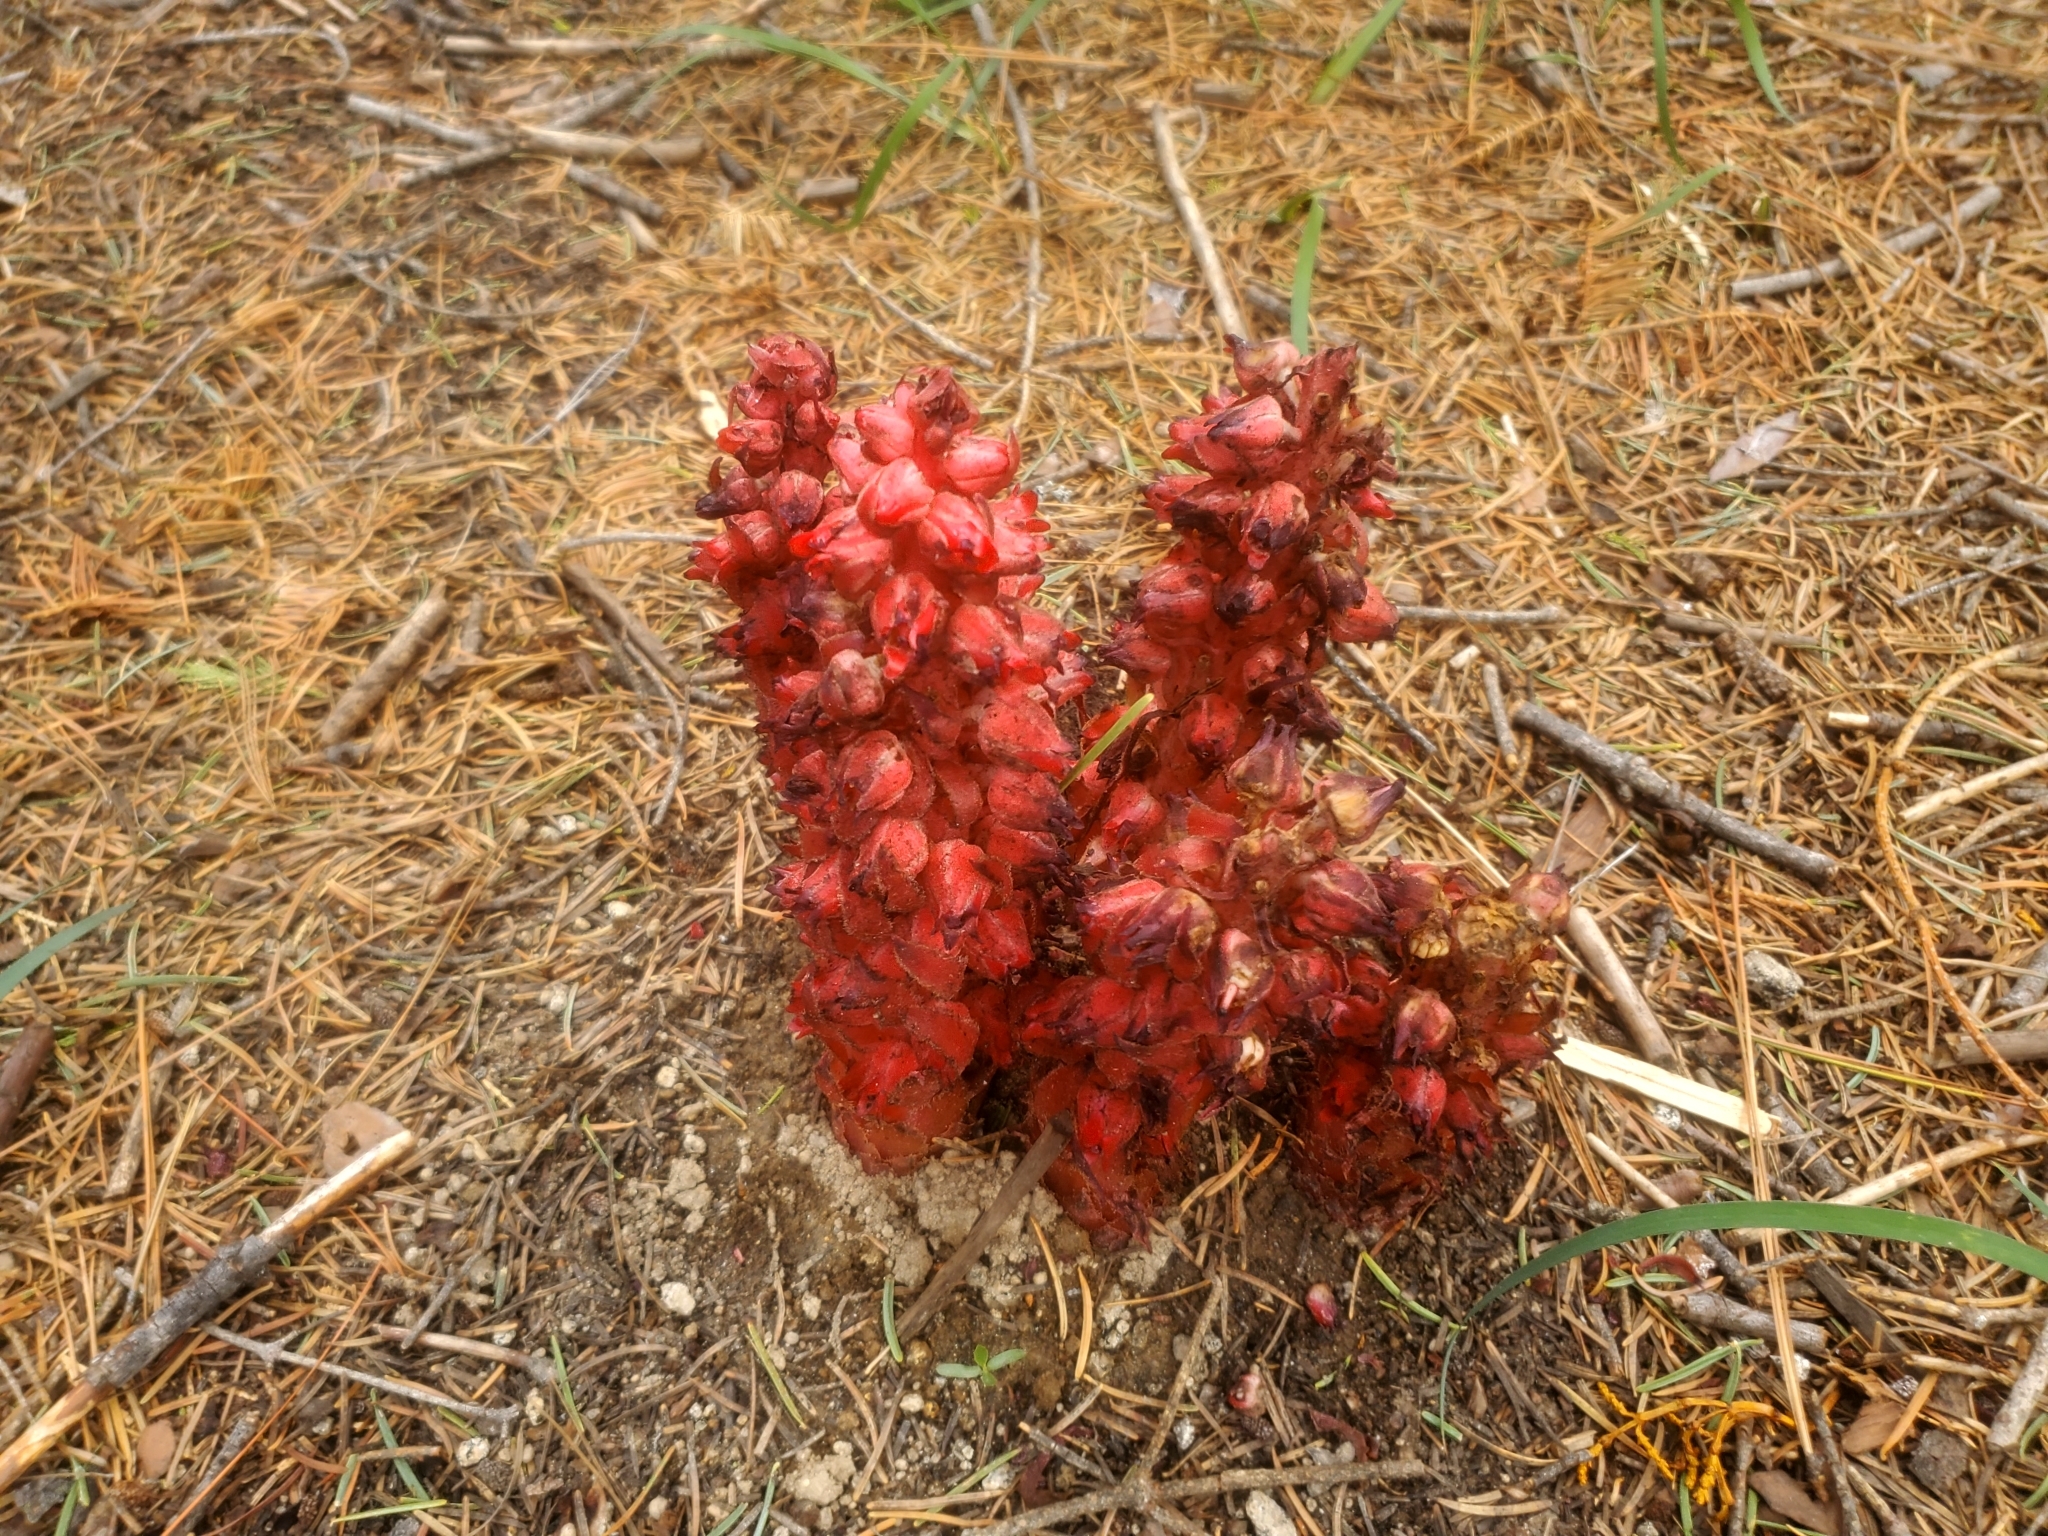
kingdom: Plantae
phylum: Tracheophyta
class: Magnoliopsida
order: Ericales
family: Ericaceae
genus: Sarcodes
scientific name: Sarcodes sanguinea
